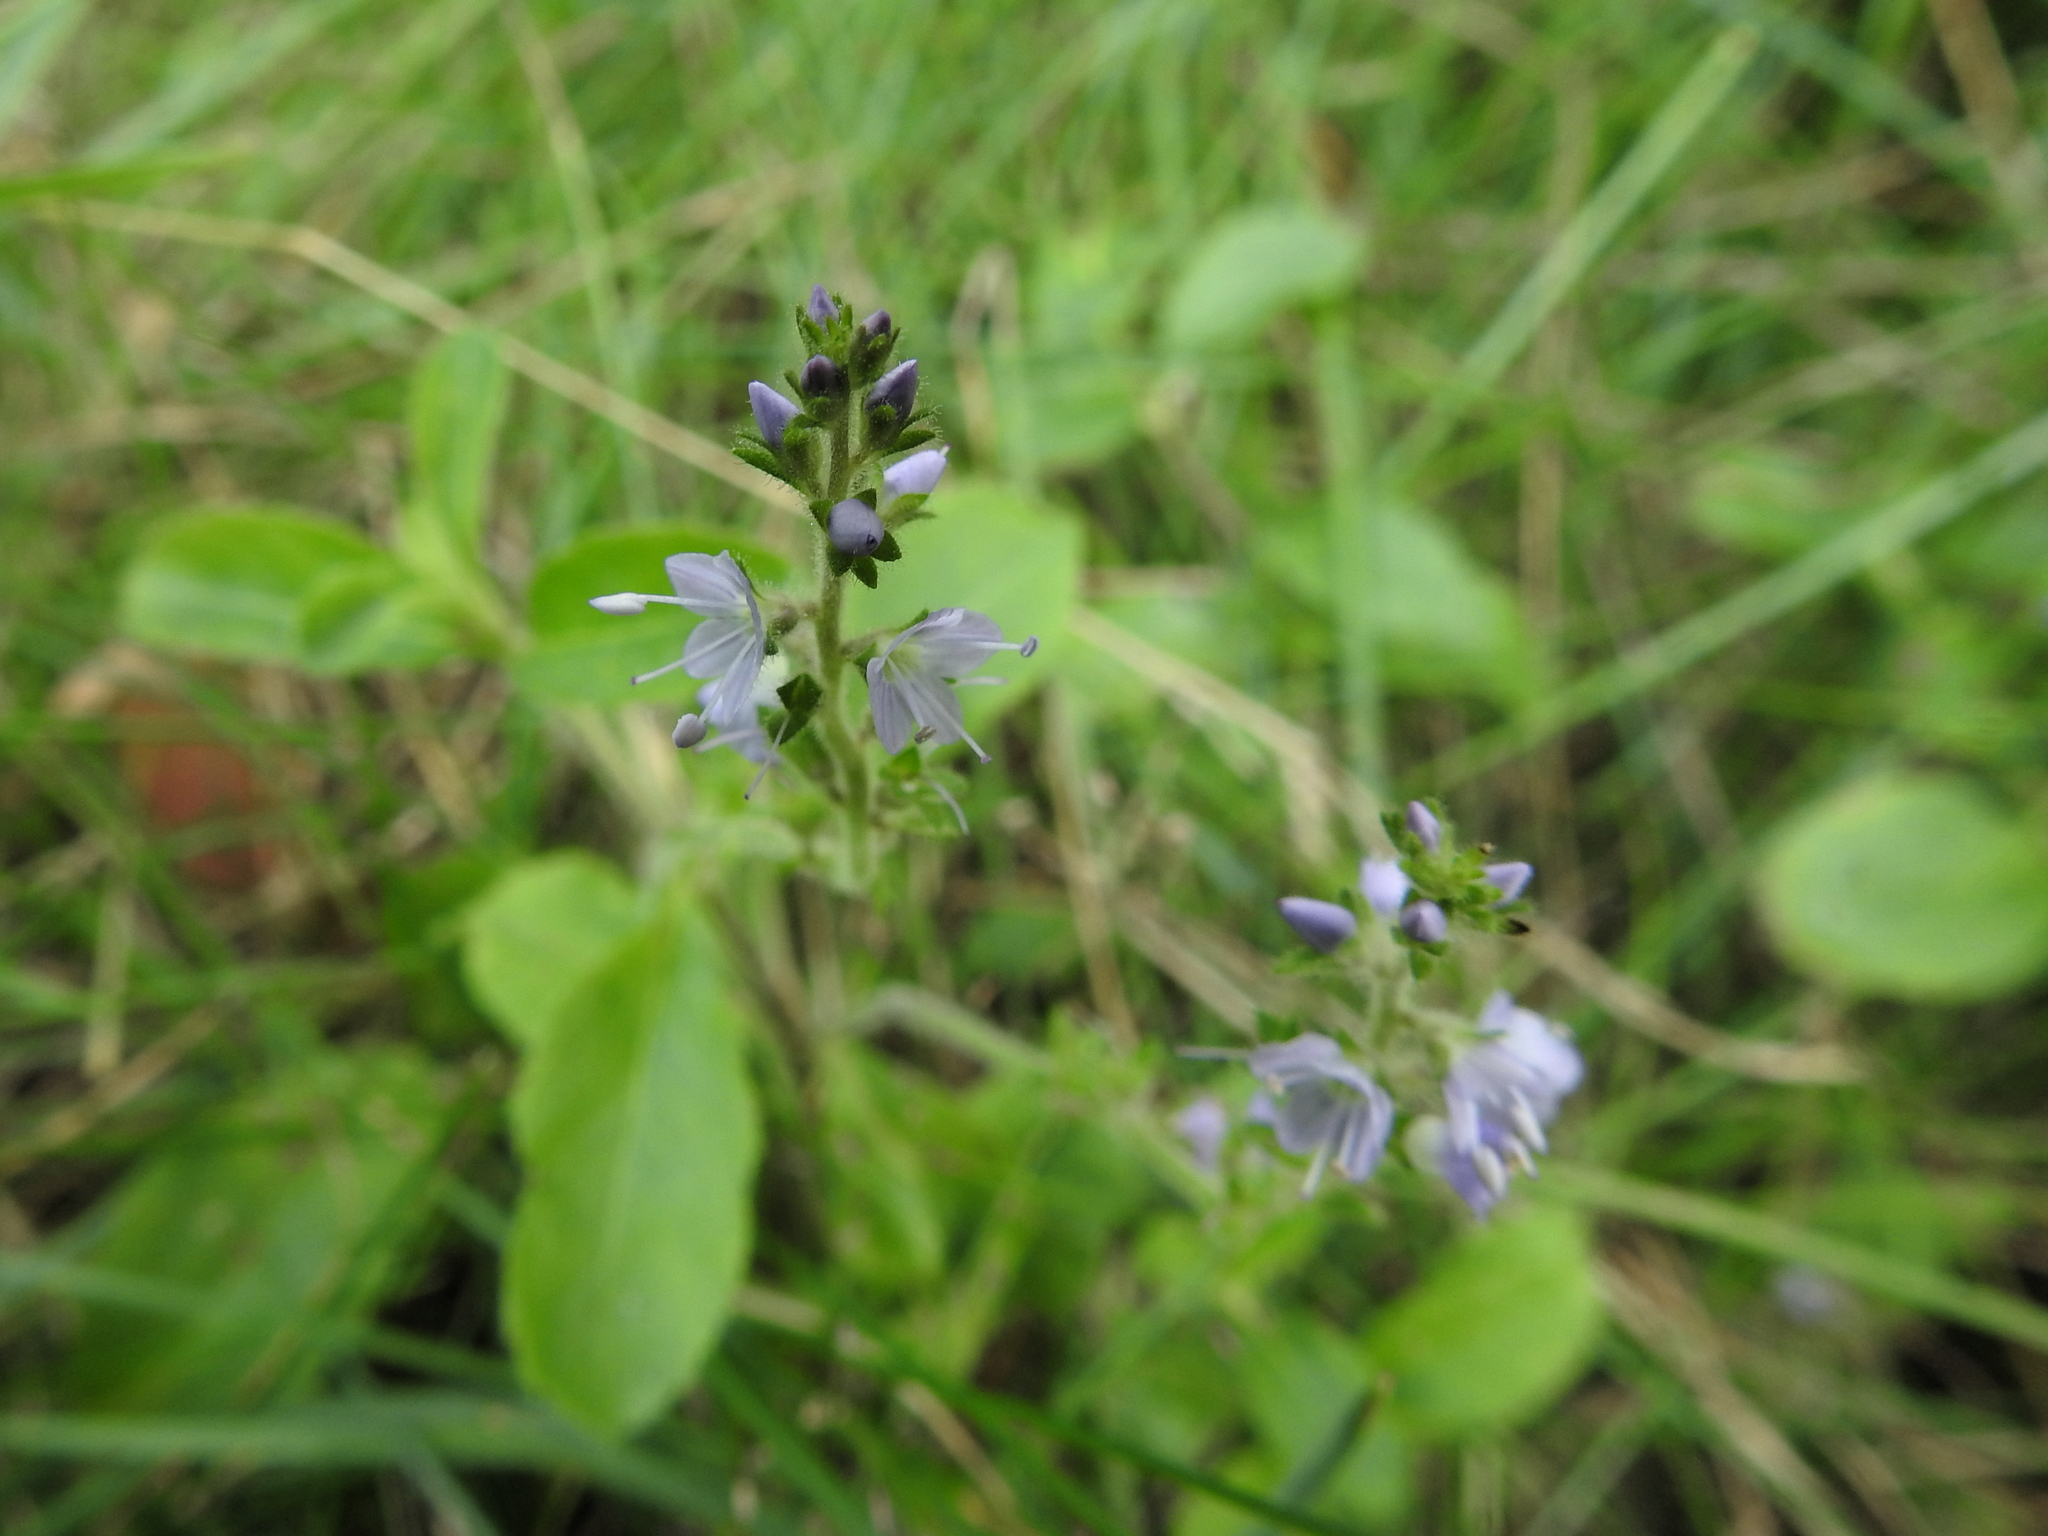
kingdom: Plantae
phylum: Tracheophyta
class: Magnoliopsida
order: Lamiales
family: Plantaginaceae
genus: Veronica
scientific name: Veronica officinalis
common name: Common speedwell
